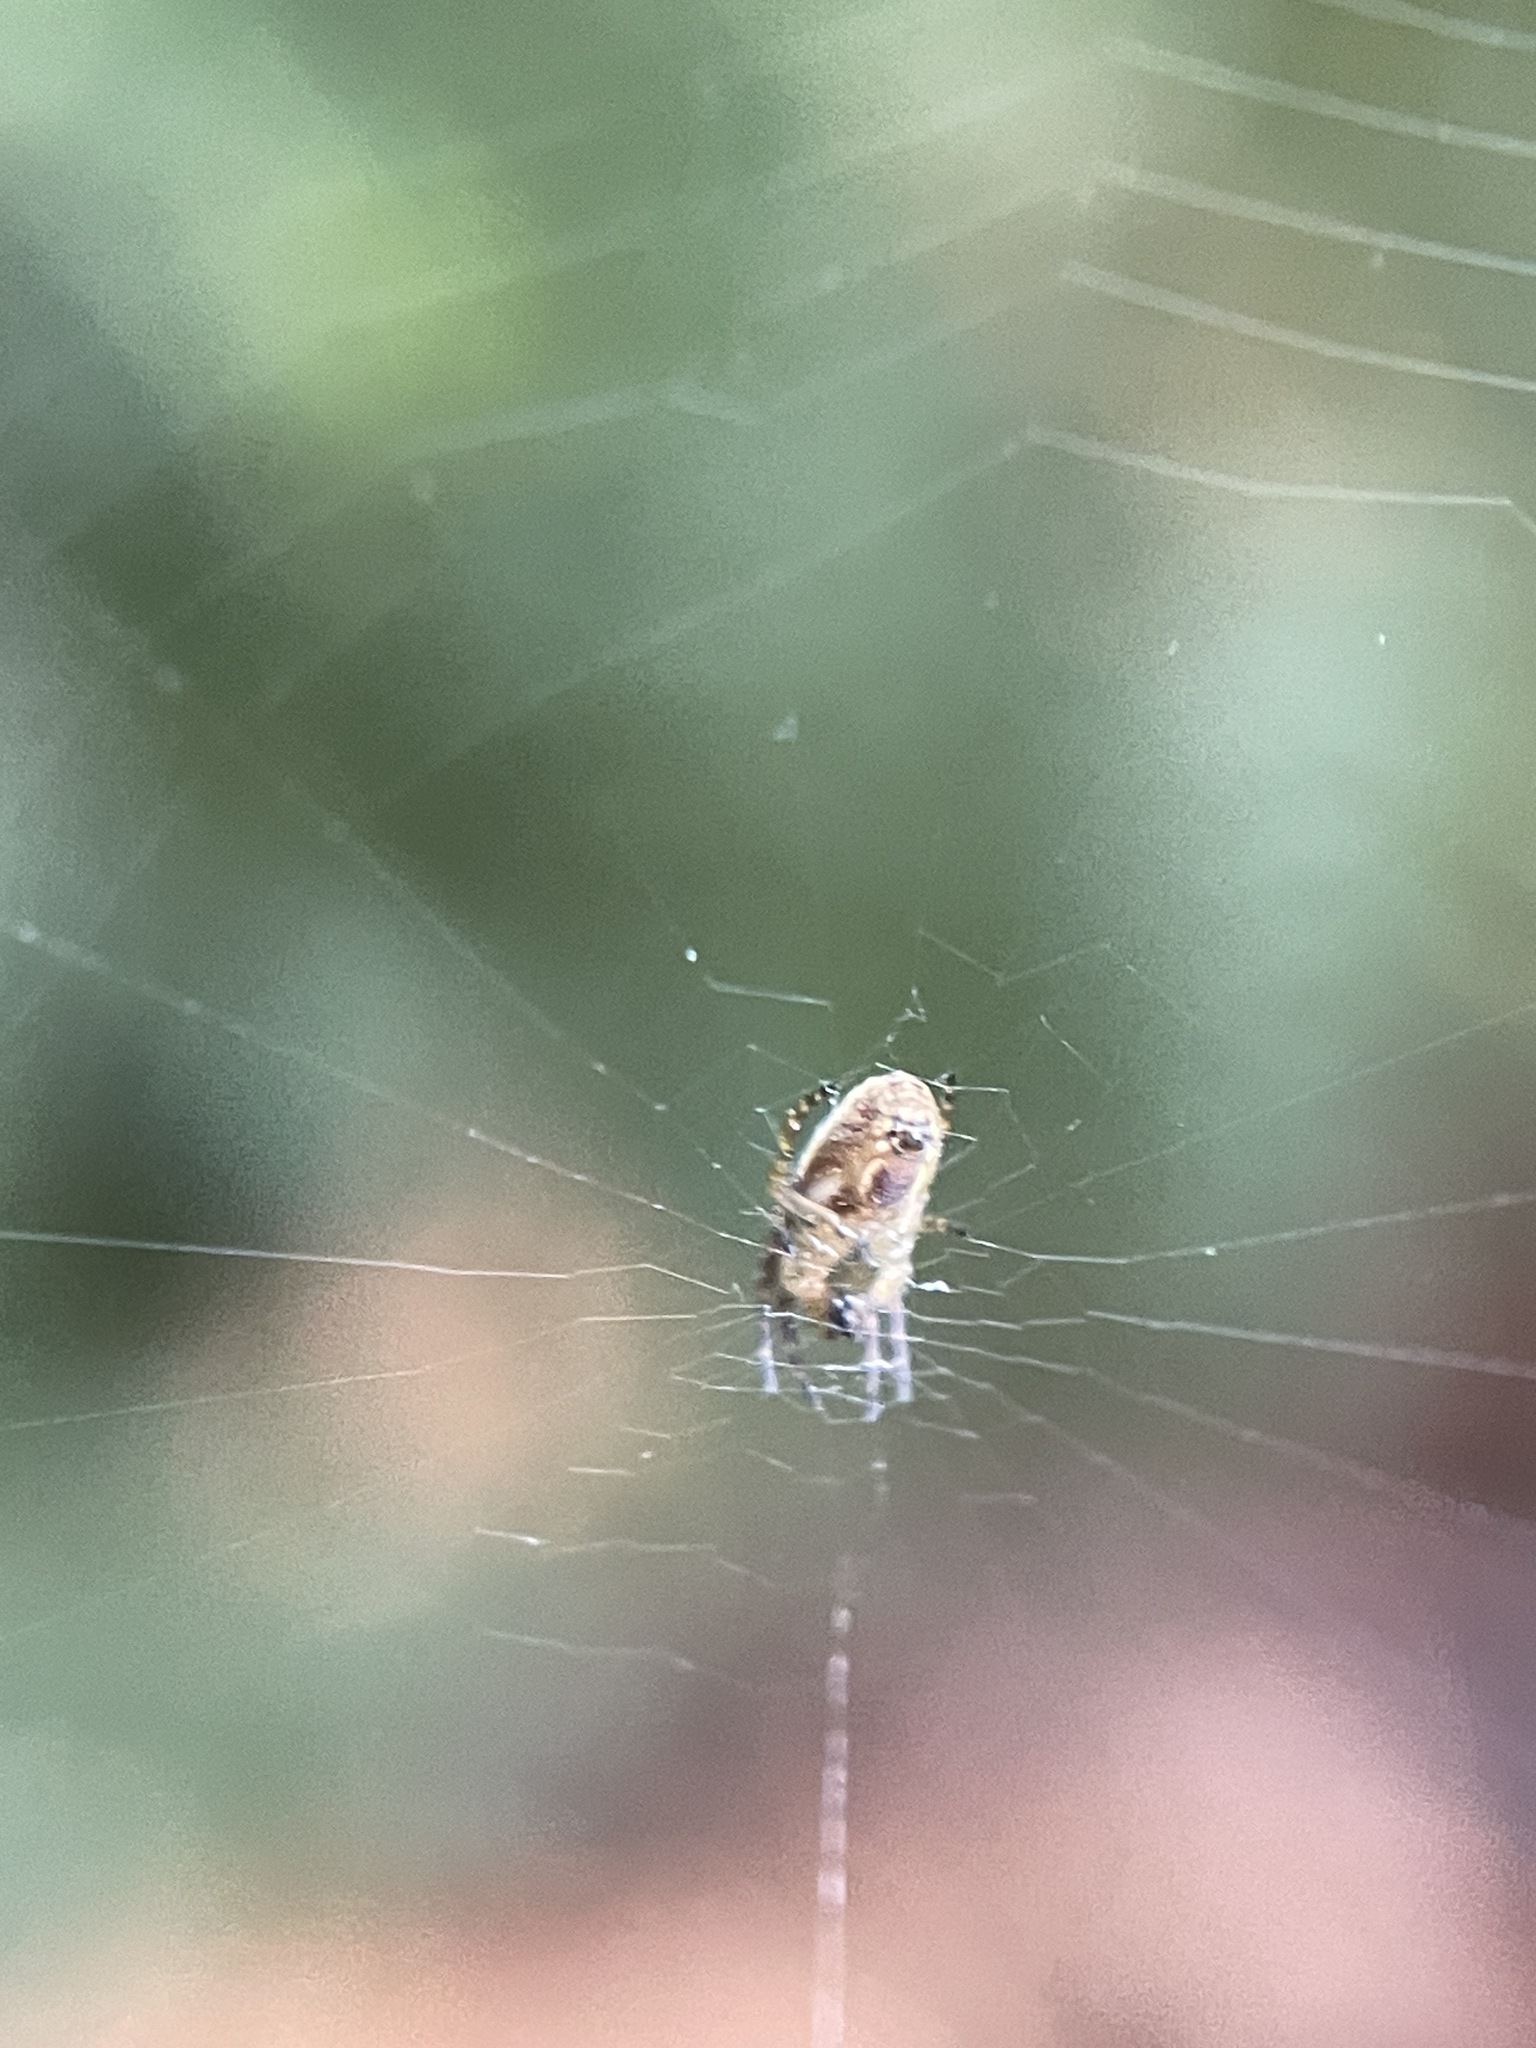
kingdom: Animalia
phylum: Arthropoda
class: Arachnida
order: Araneae
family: Araneidae
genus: Plebs
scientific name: Plebs eburnus
